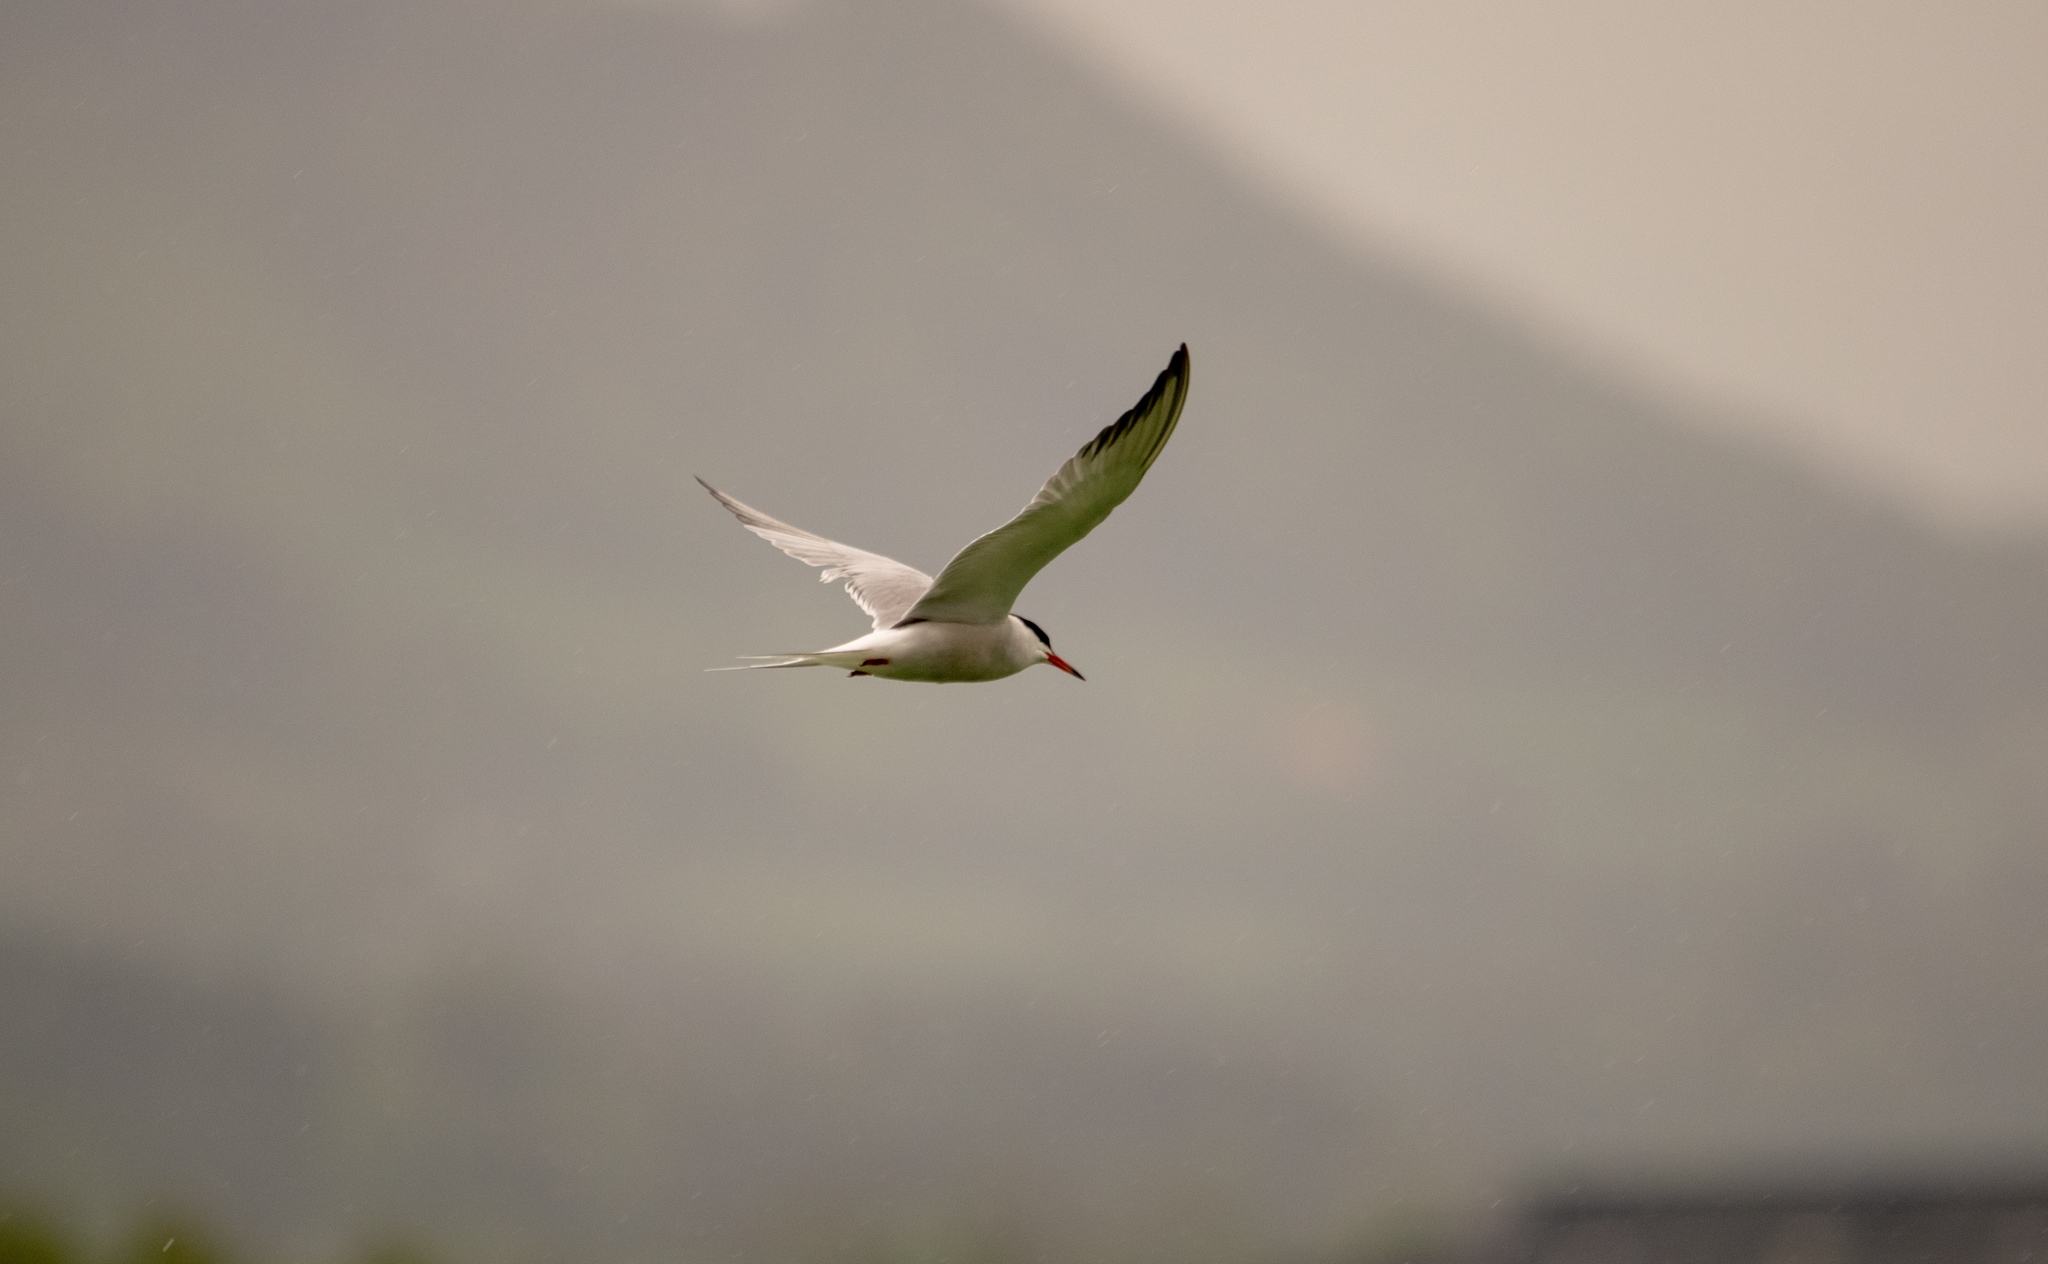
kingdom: Animalia
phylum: Chordata
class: Aves
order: Charadriiformes
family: Laridae
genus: Sterna
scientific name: Sterna hirundo
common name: Common tern
